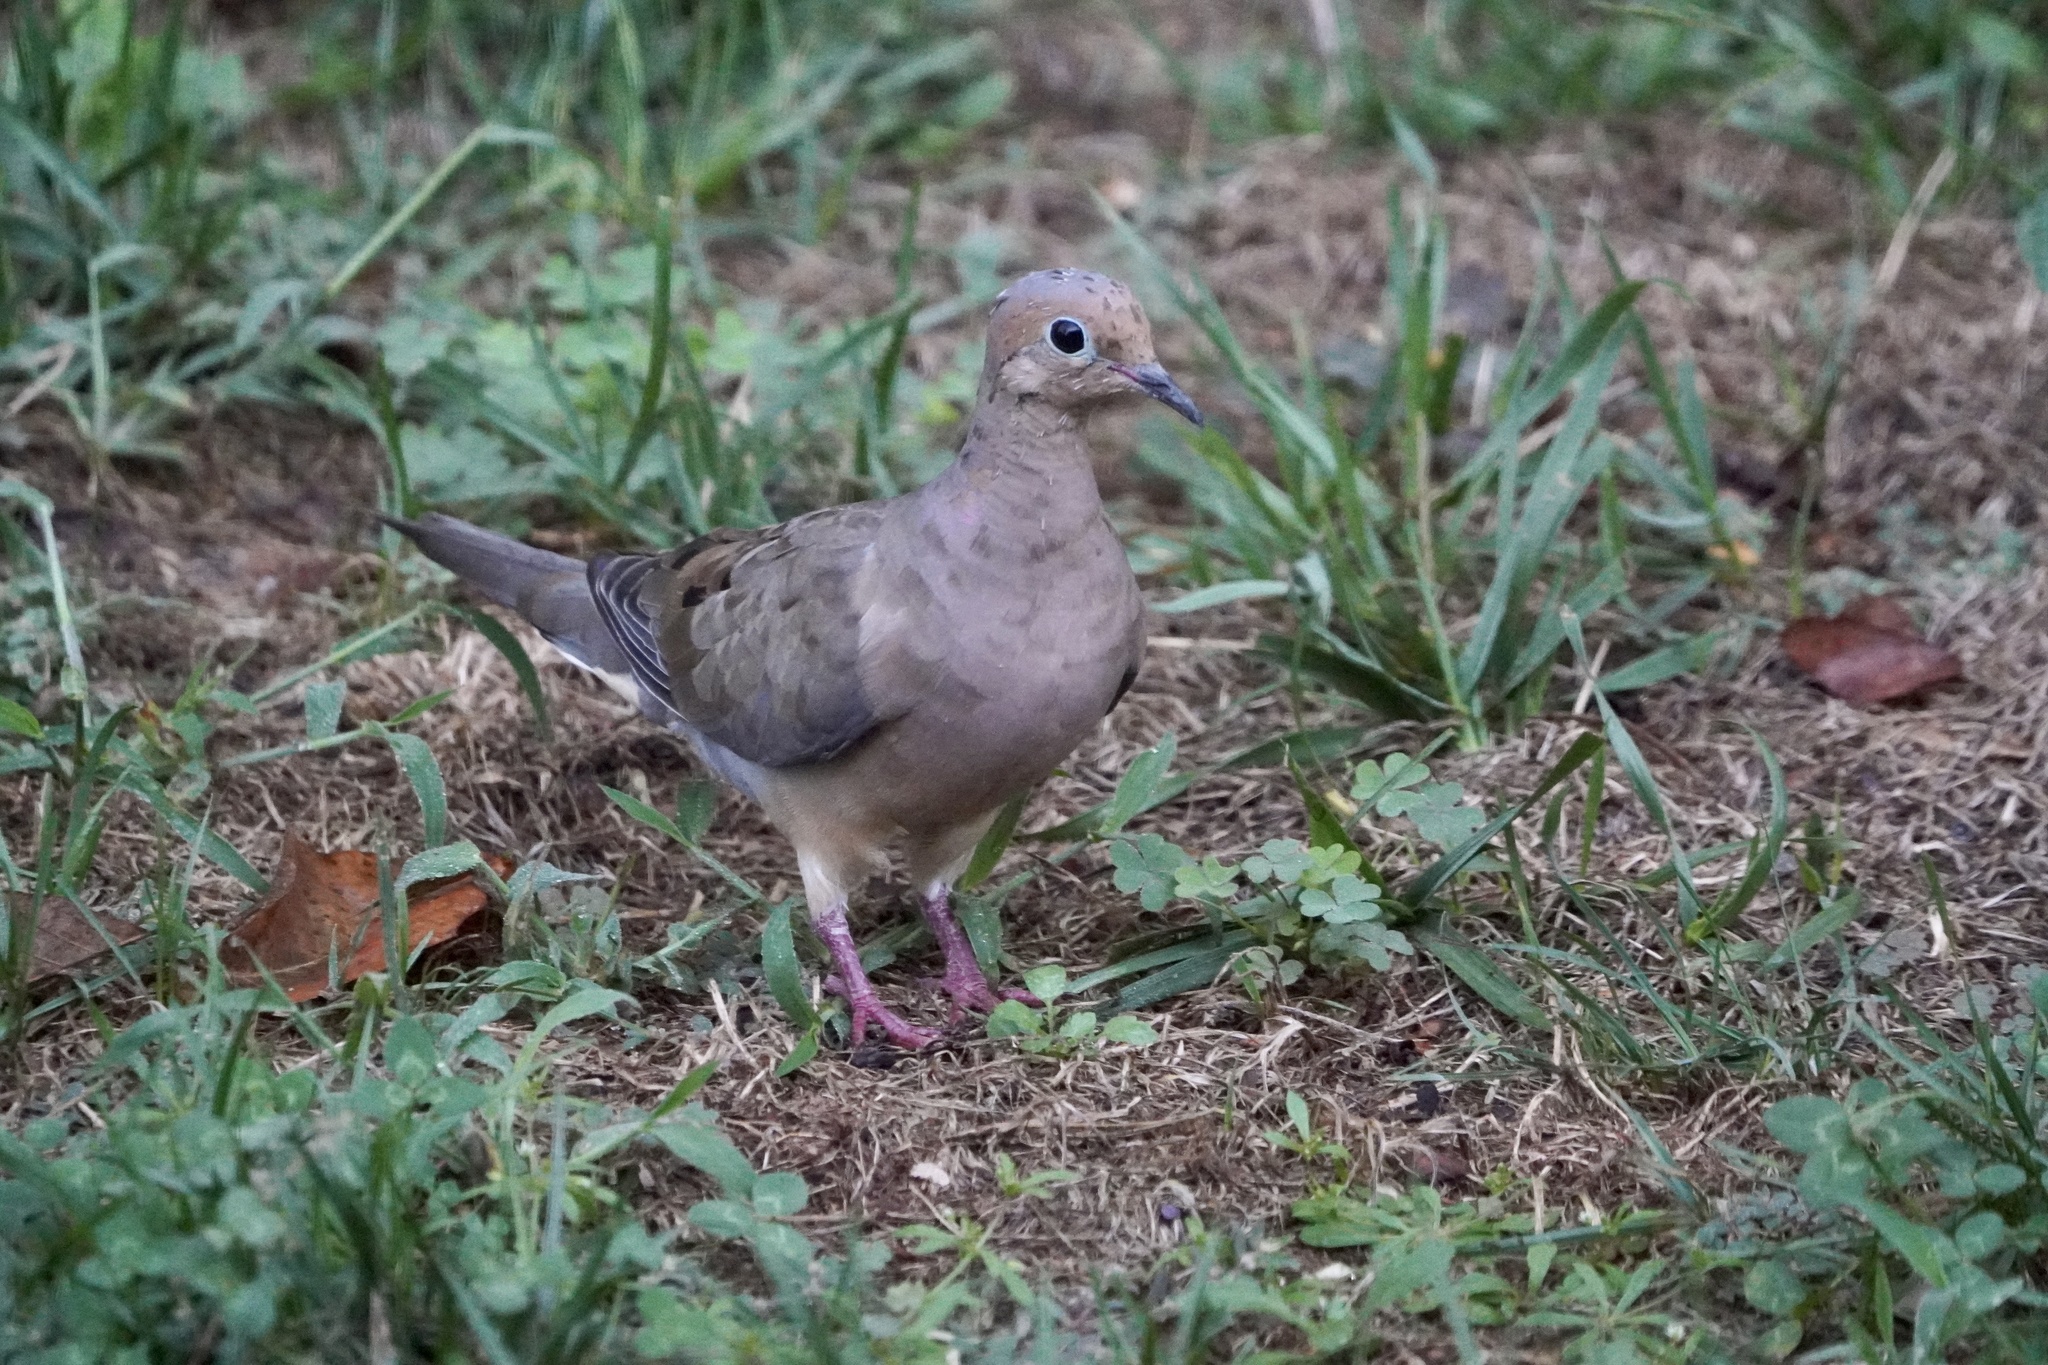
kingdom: Animalia
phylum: Chordata
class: Aves
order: Columbiformes
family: Columbidae
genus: Zenaida
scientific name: Zenaida macroura
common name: Mourning dove
